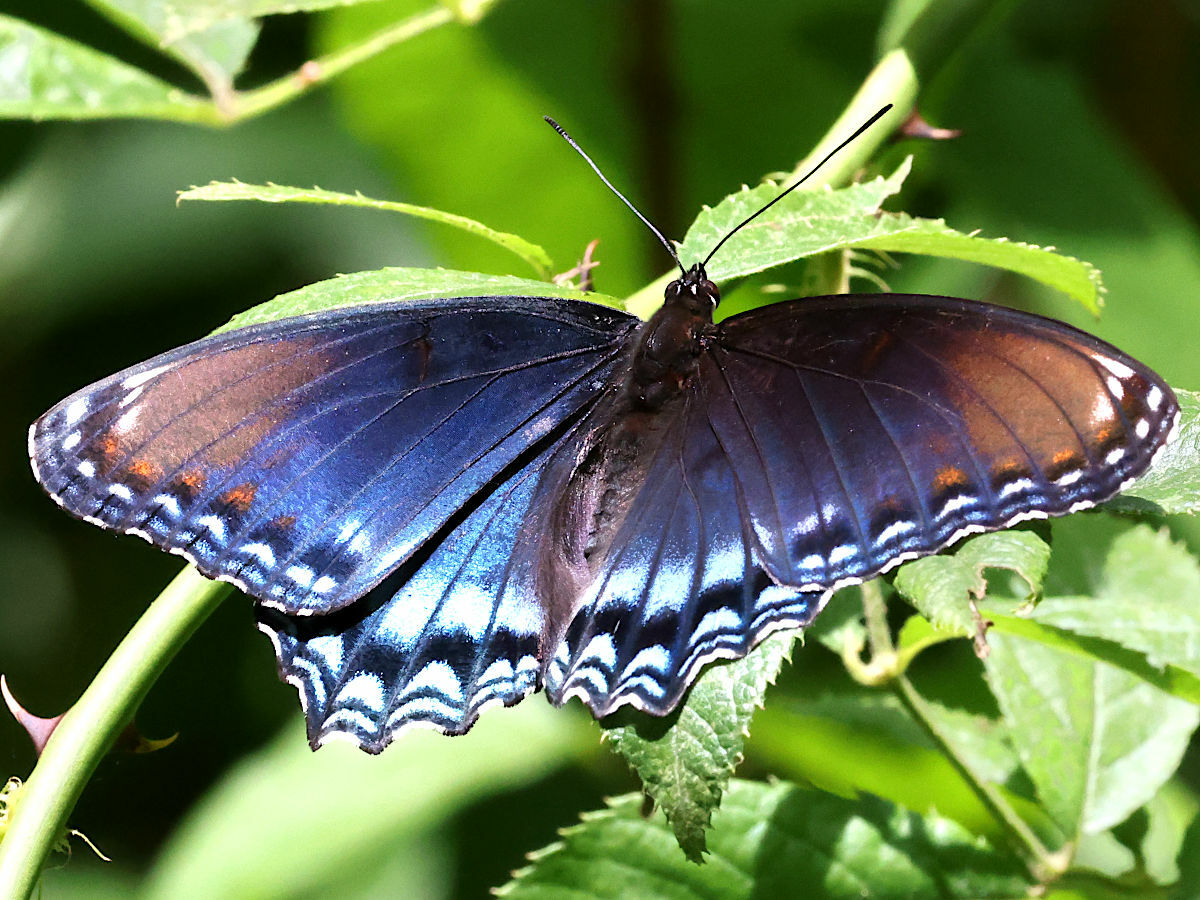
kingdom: Animalia
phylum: Arthropoda
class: Insecta
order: Lepidoptera
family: Nymphalidae
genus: Limenitis
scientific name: Limenitis astyanax
